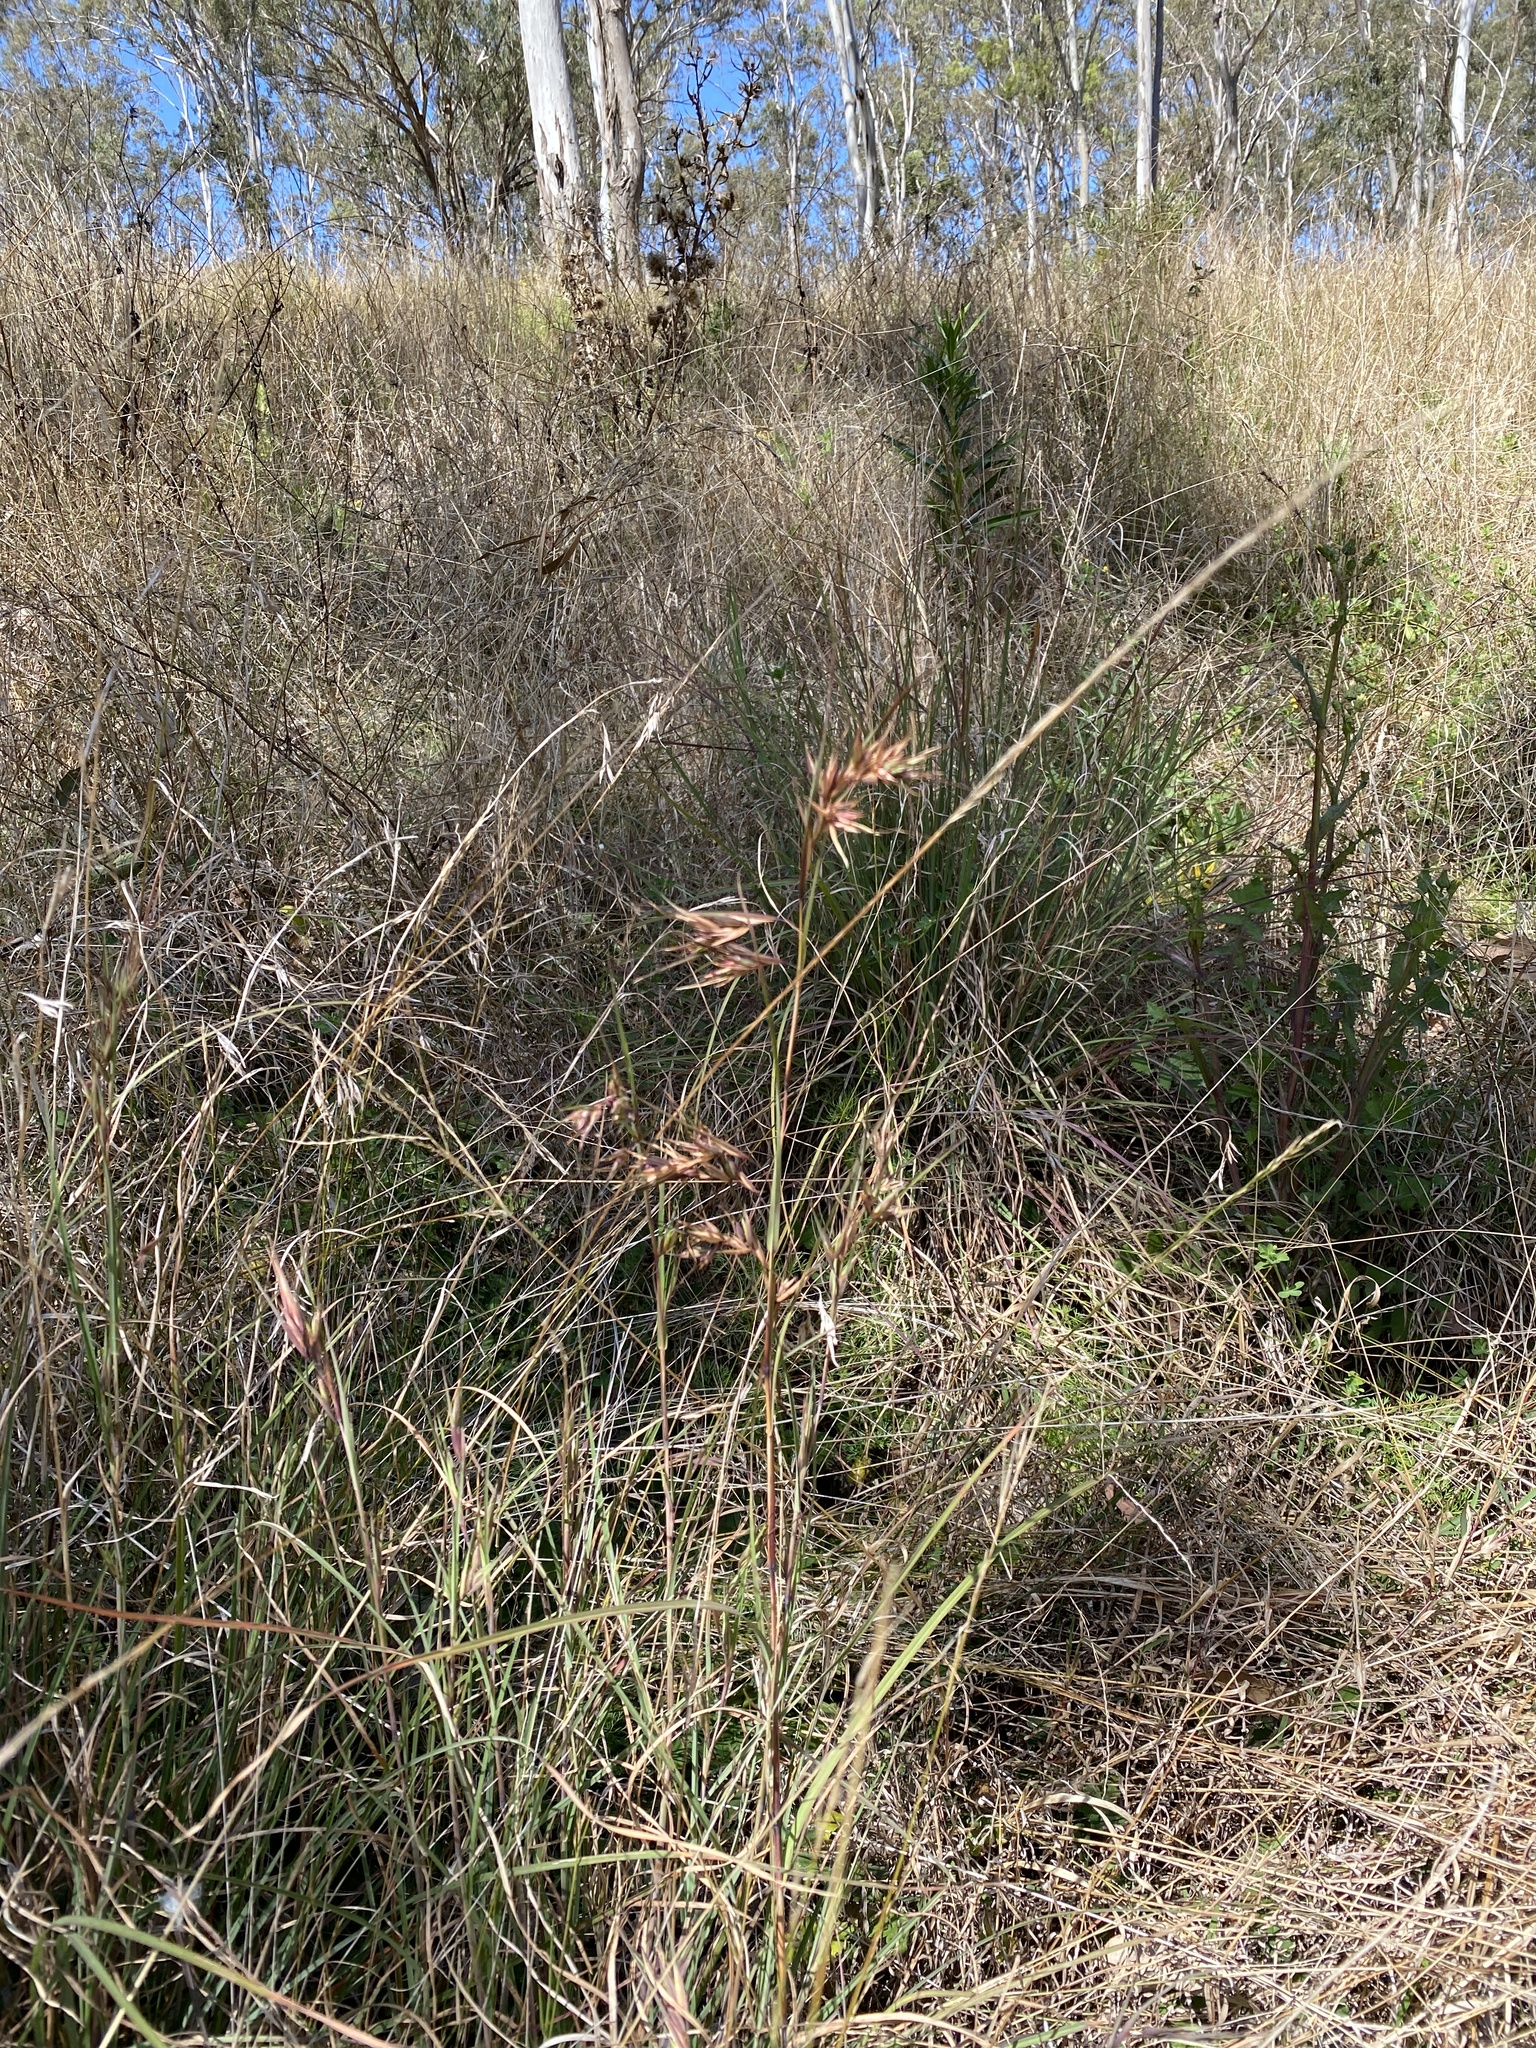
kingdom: Plantae
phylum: Tracheophyta
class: Liliopsida
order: Poales
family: Poaceae
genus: Themeda
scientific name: Themeda triandra
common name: Kangaroo grass
